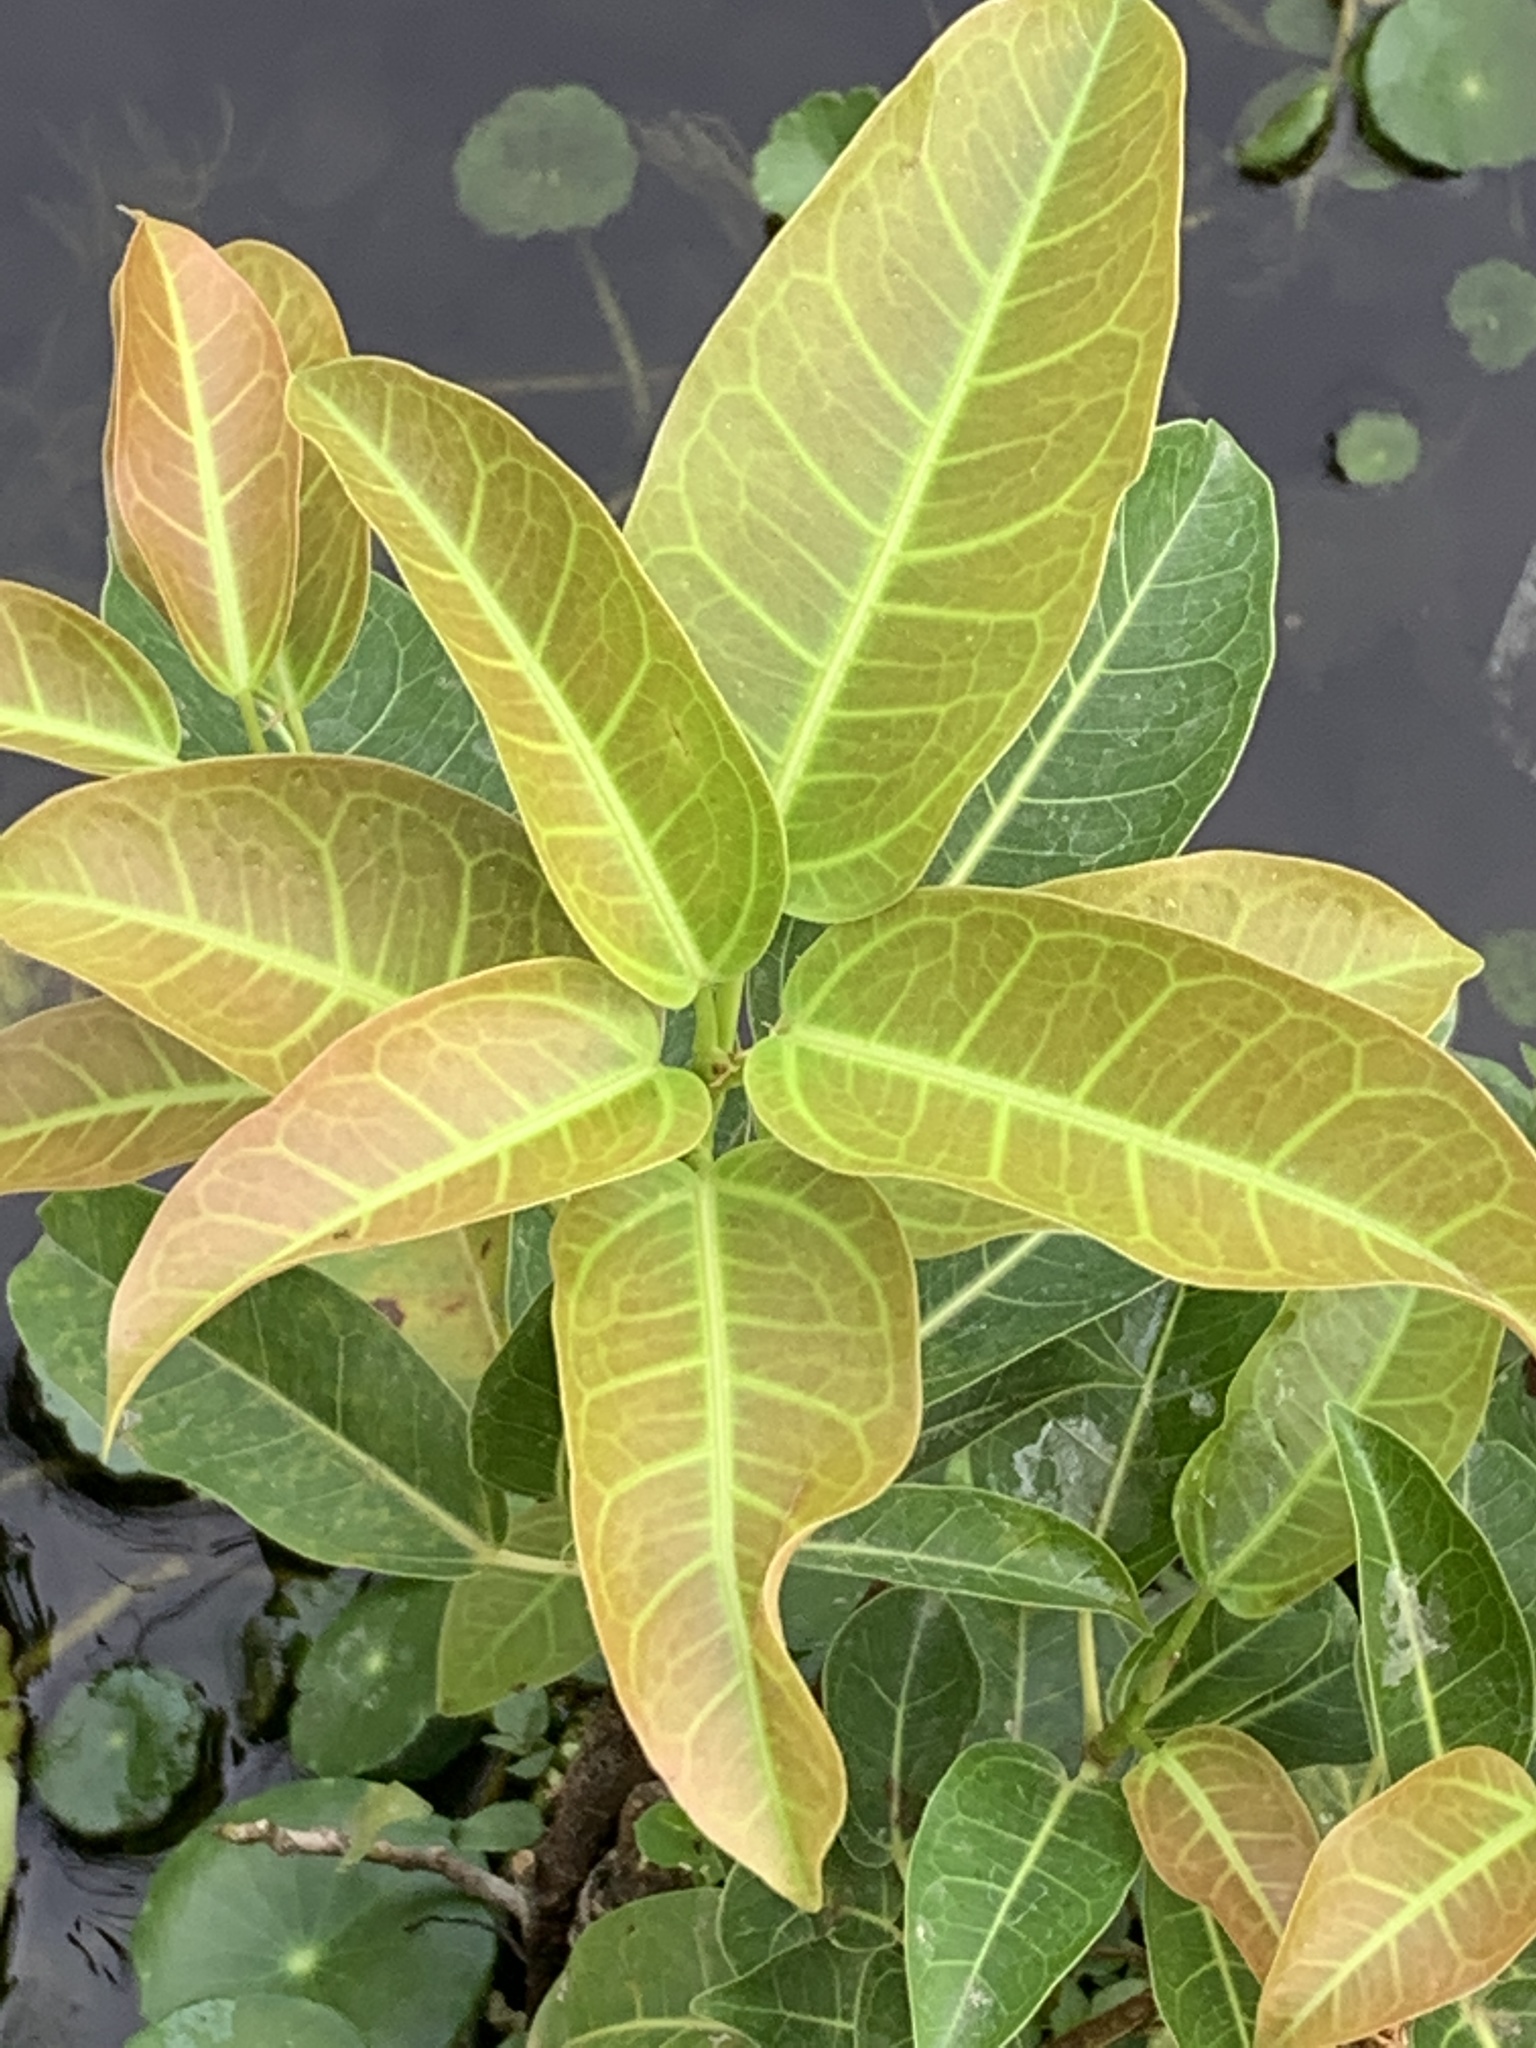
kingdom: Plantae
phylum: Tracheophyta
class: Magnoliopsida
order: Rosales
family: Moraceae
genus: Ficus
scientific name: Ficus subpisocarpa
